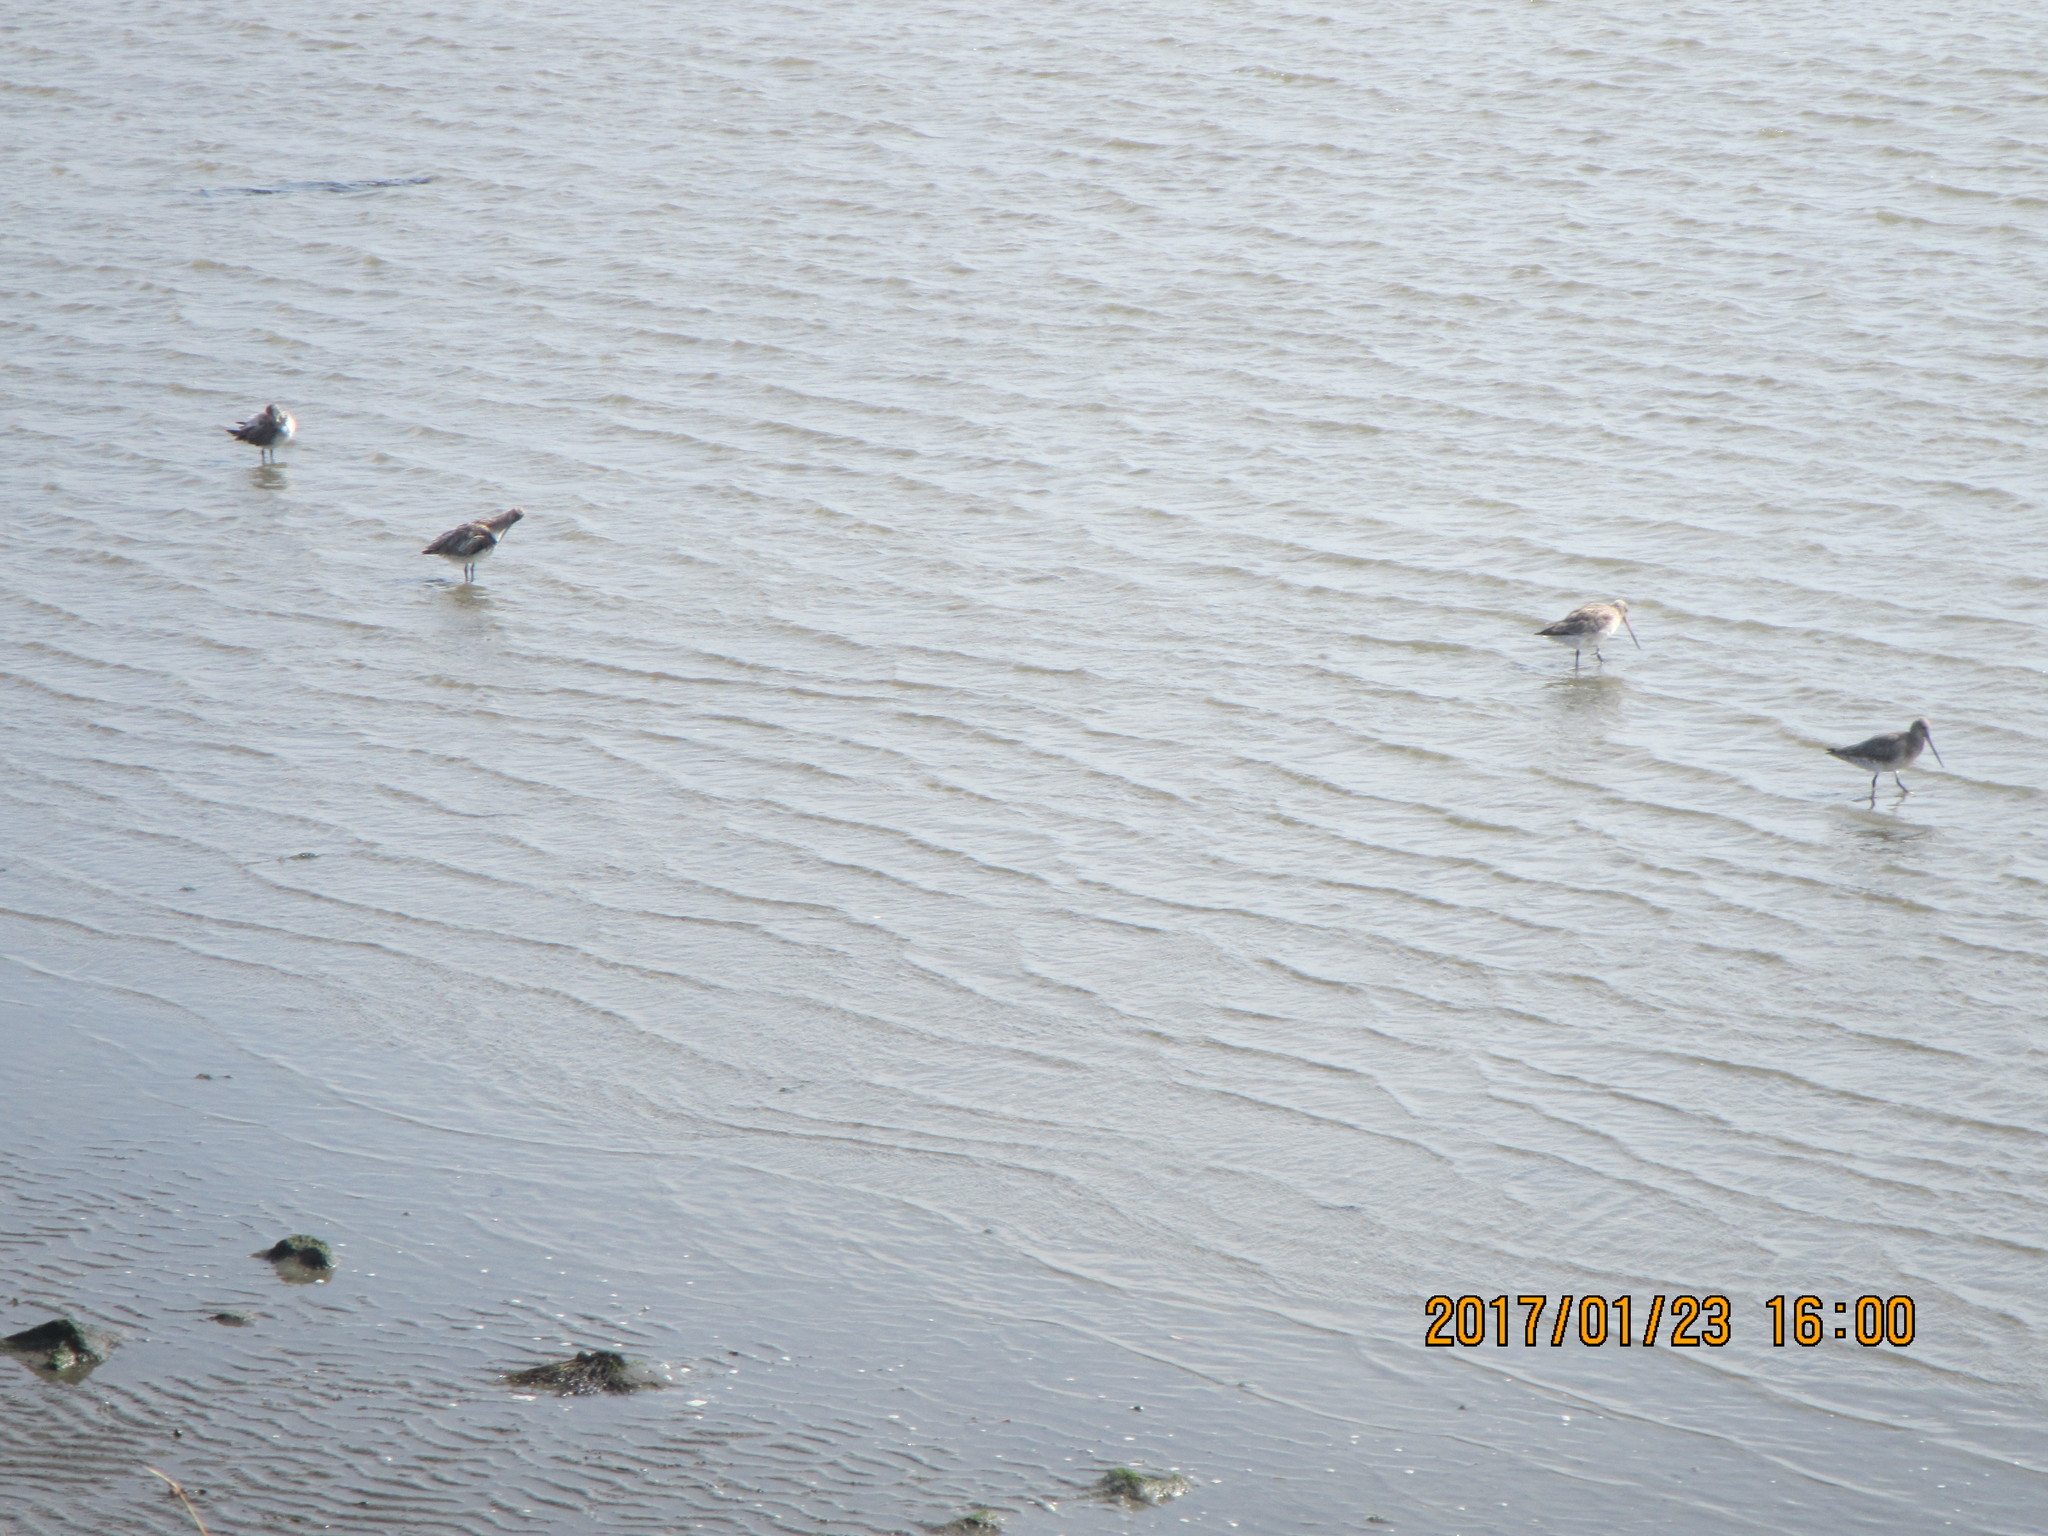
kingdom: Animalia
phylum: Chordata
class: Aves
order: Charadriiformes
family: Scolopacidae
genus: Limosa
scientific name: Limosa lapponica
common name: Bar-tailed godwit
